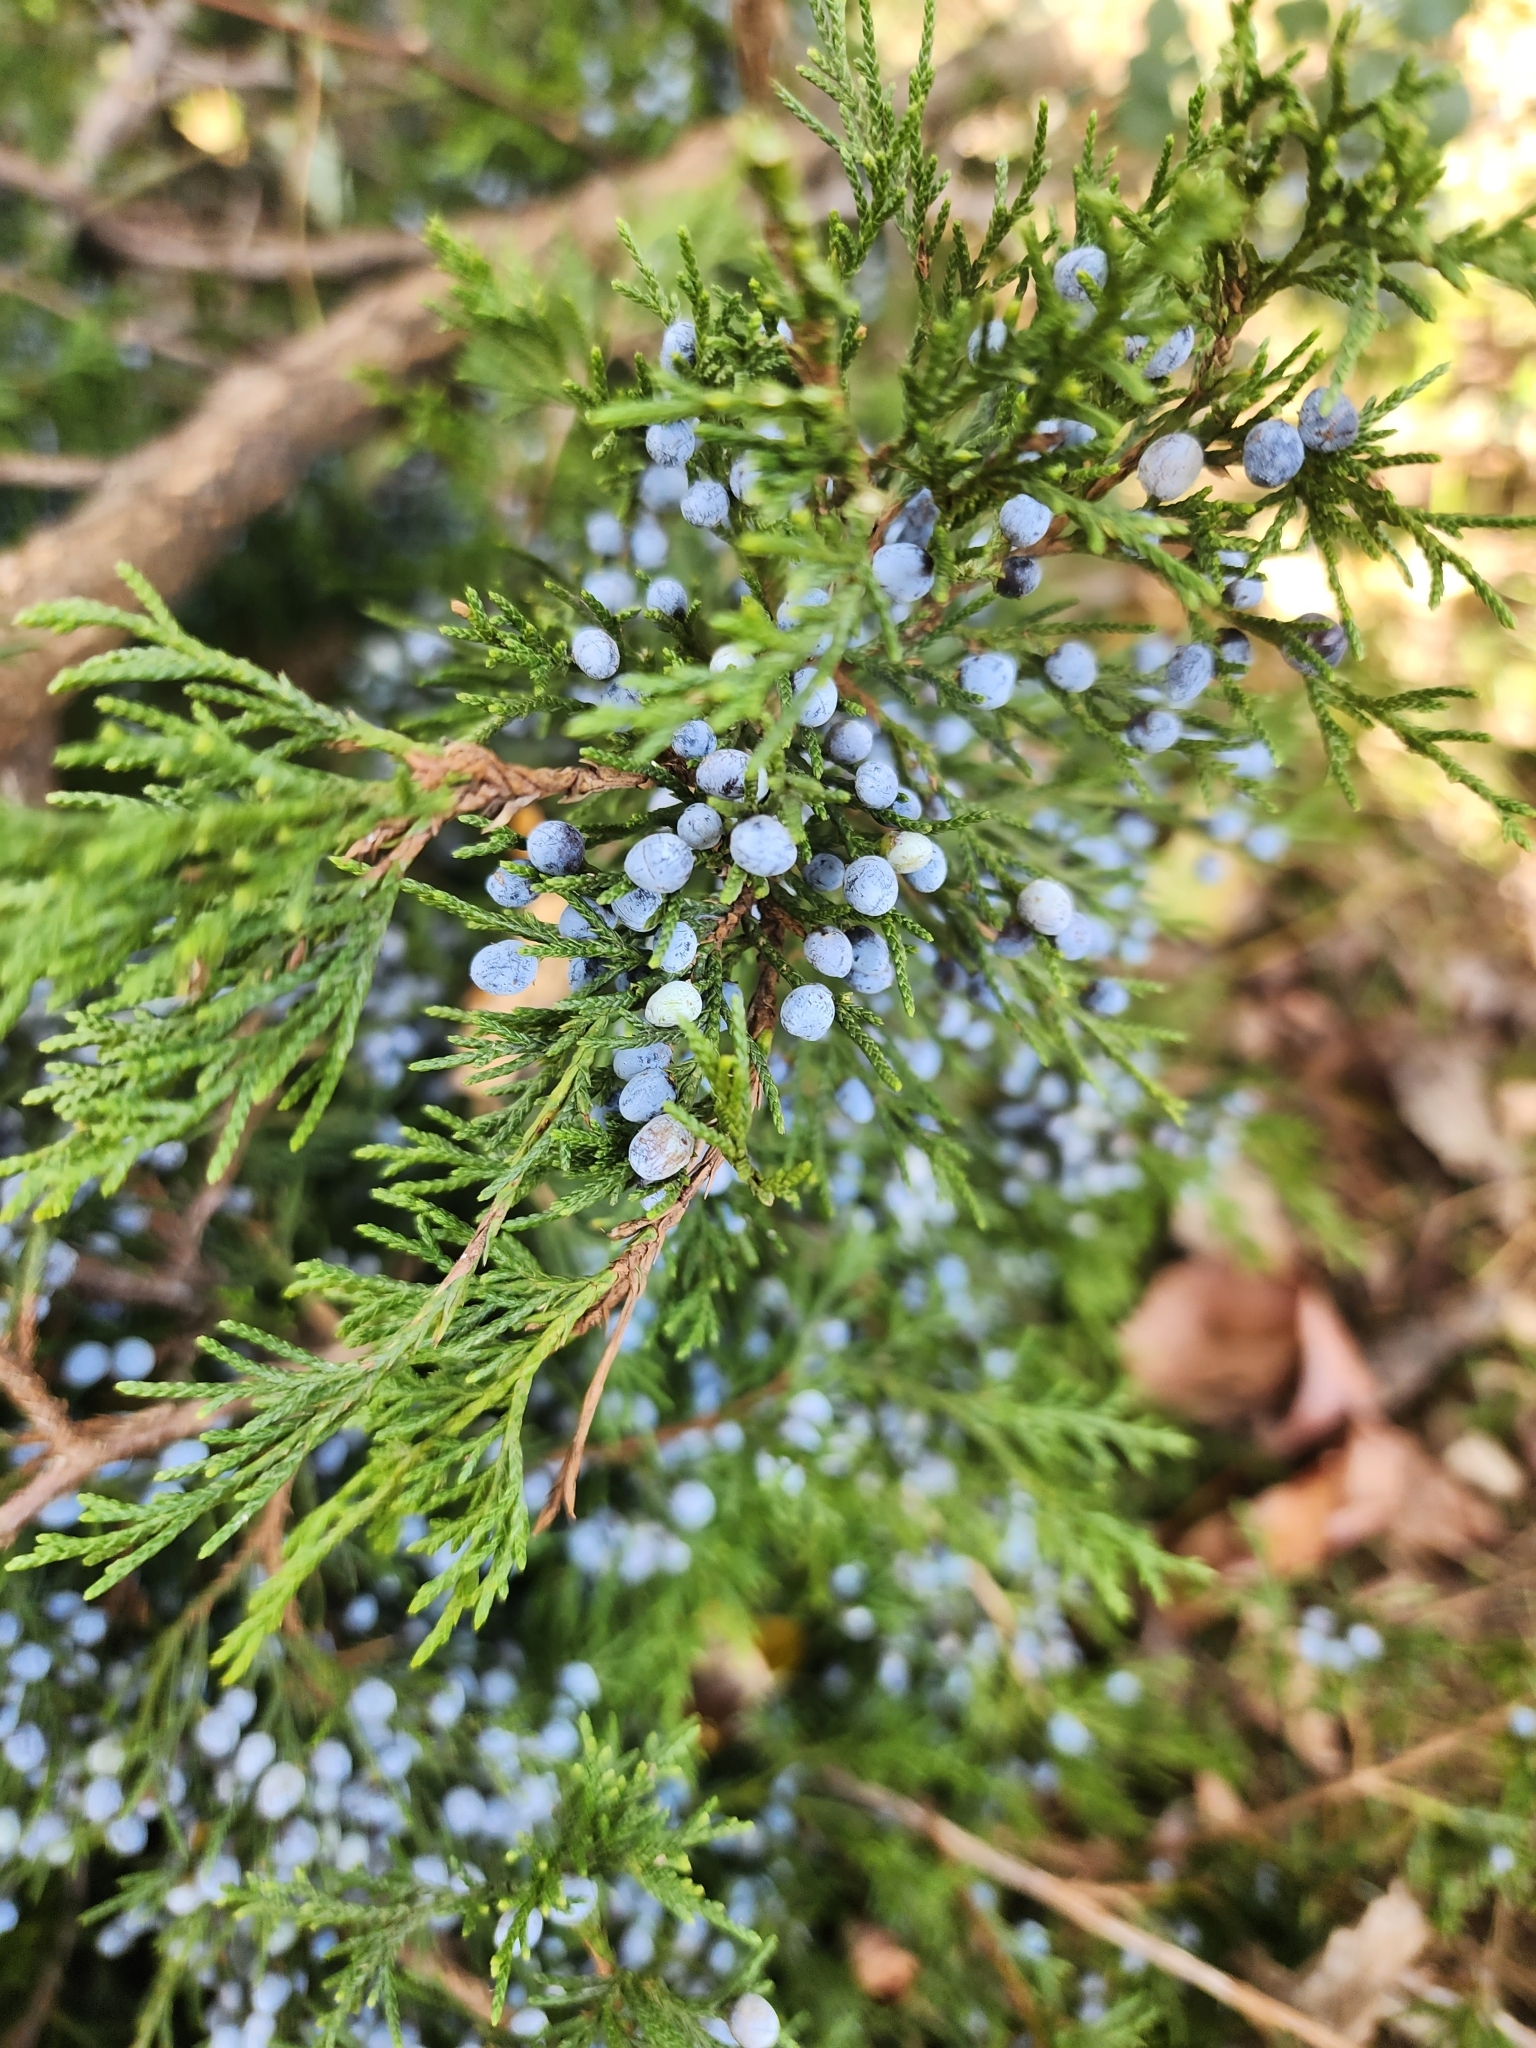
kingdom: Plantae
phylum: Tracheophyta
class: Pinopsida
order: Pinales
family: Cupressaceae
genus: Juniperus
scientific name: Juniperus virginiana
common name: Red juniper
